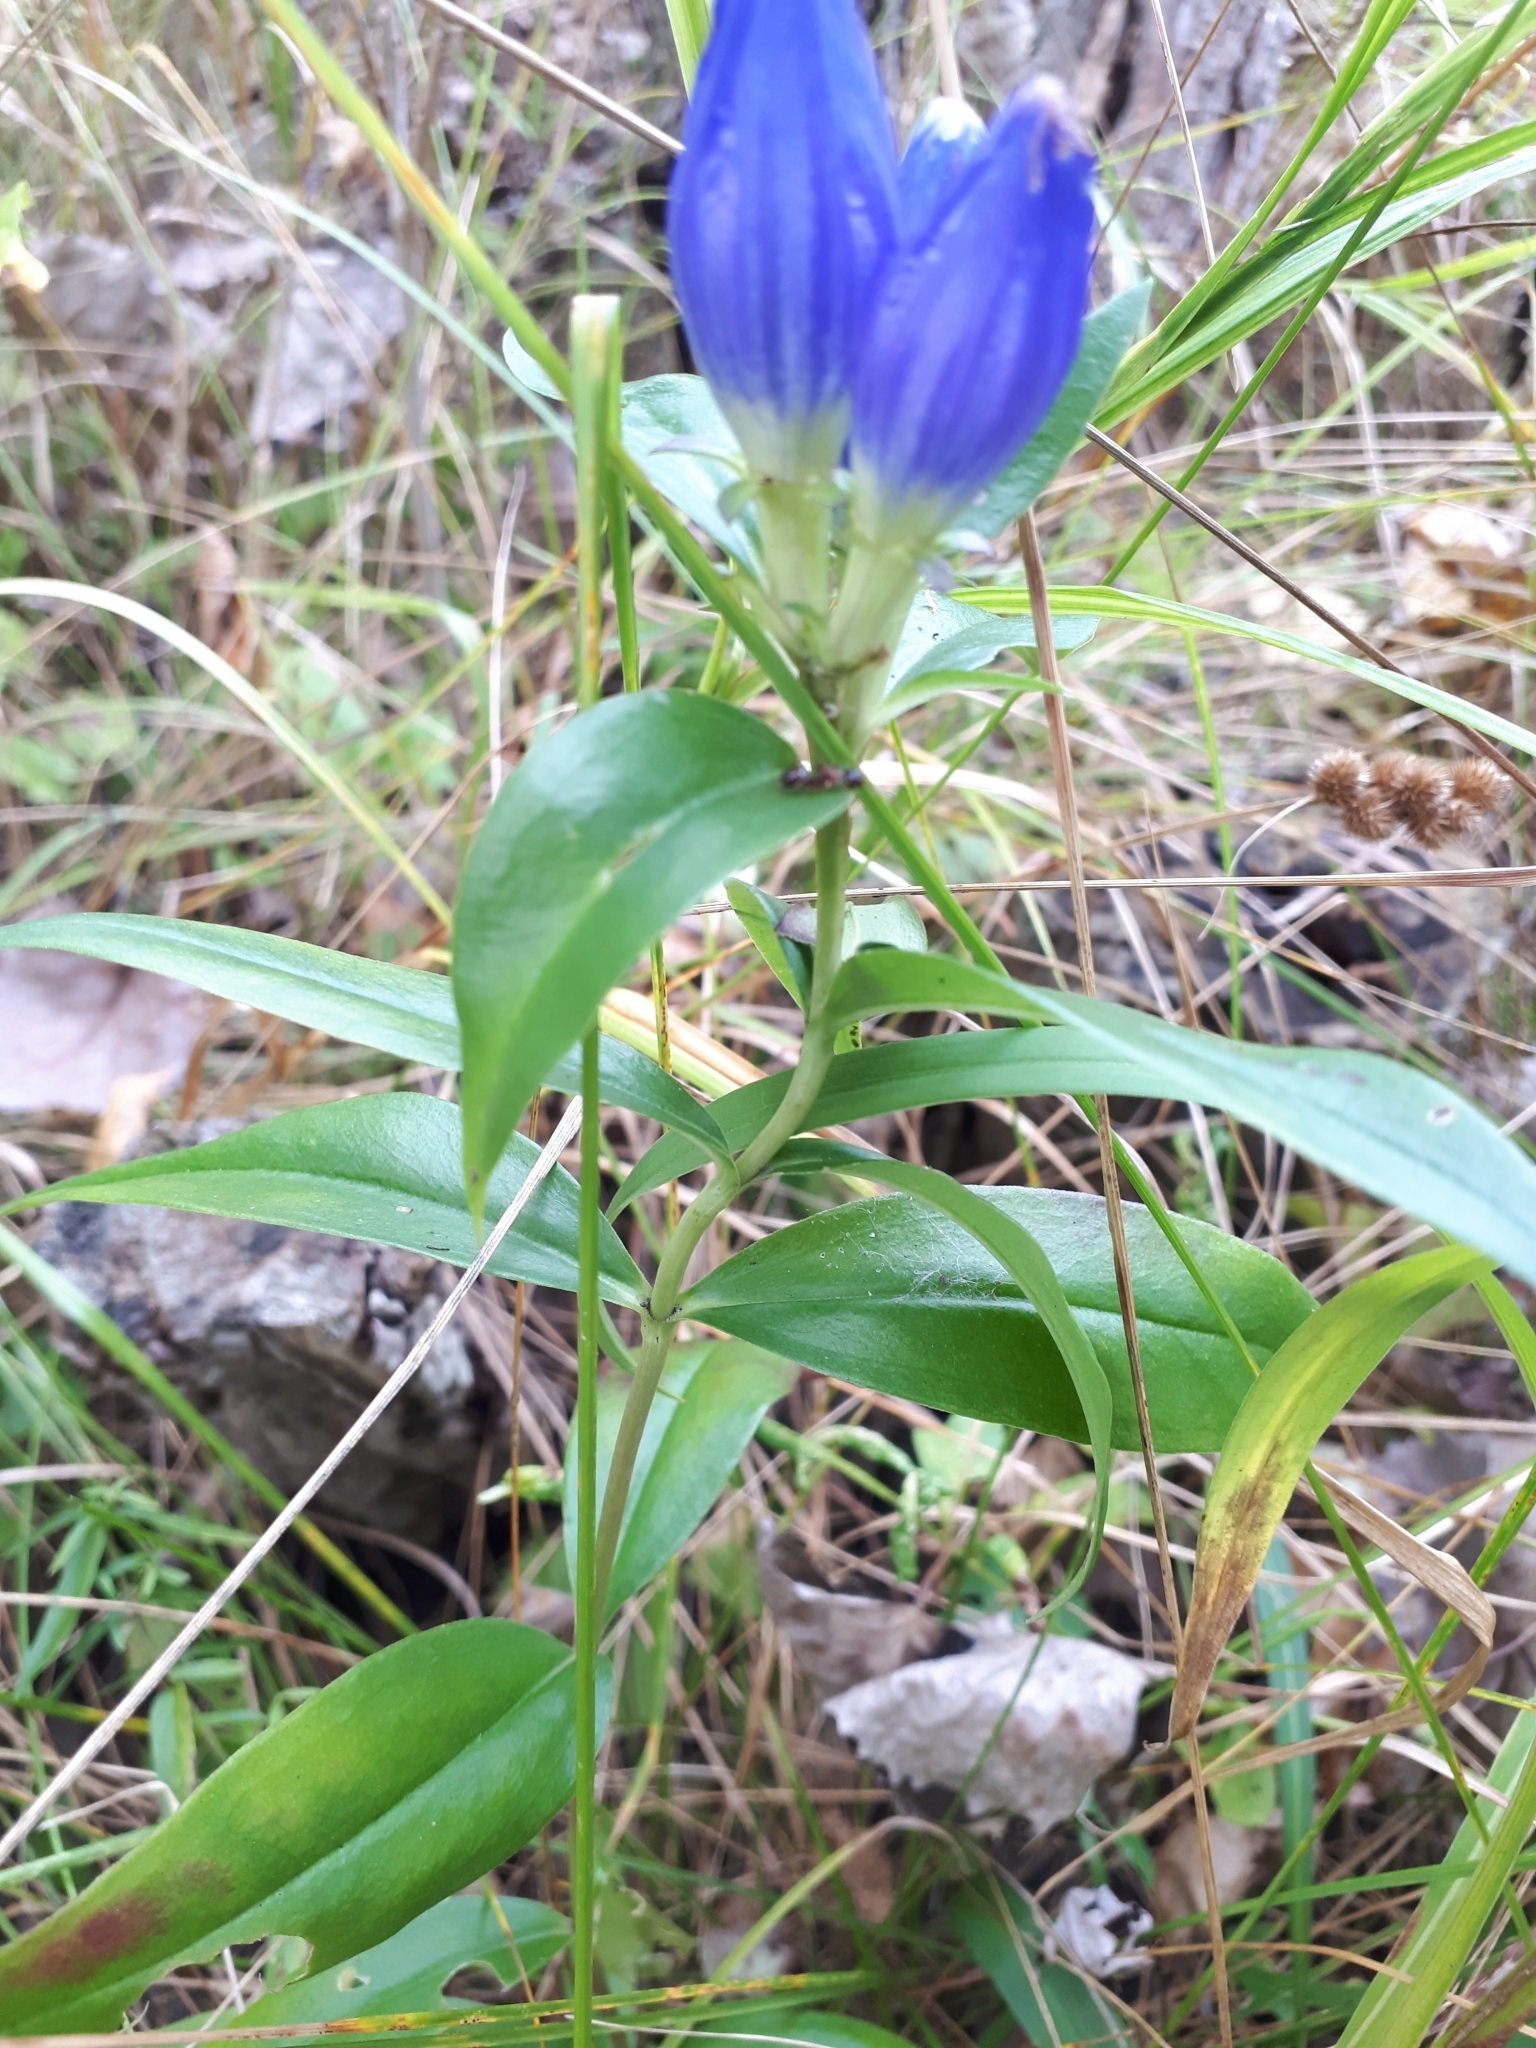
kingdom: Plantae
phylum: Tracheophyta
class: Magnoliopsida
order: Gentianales
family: Gentianaceae
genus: Gentiana
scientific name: Gentiana andrewsii
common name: Bottle gentian
